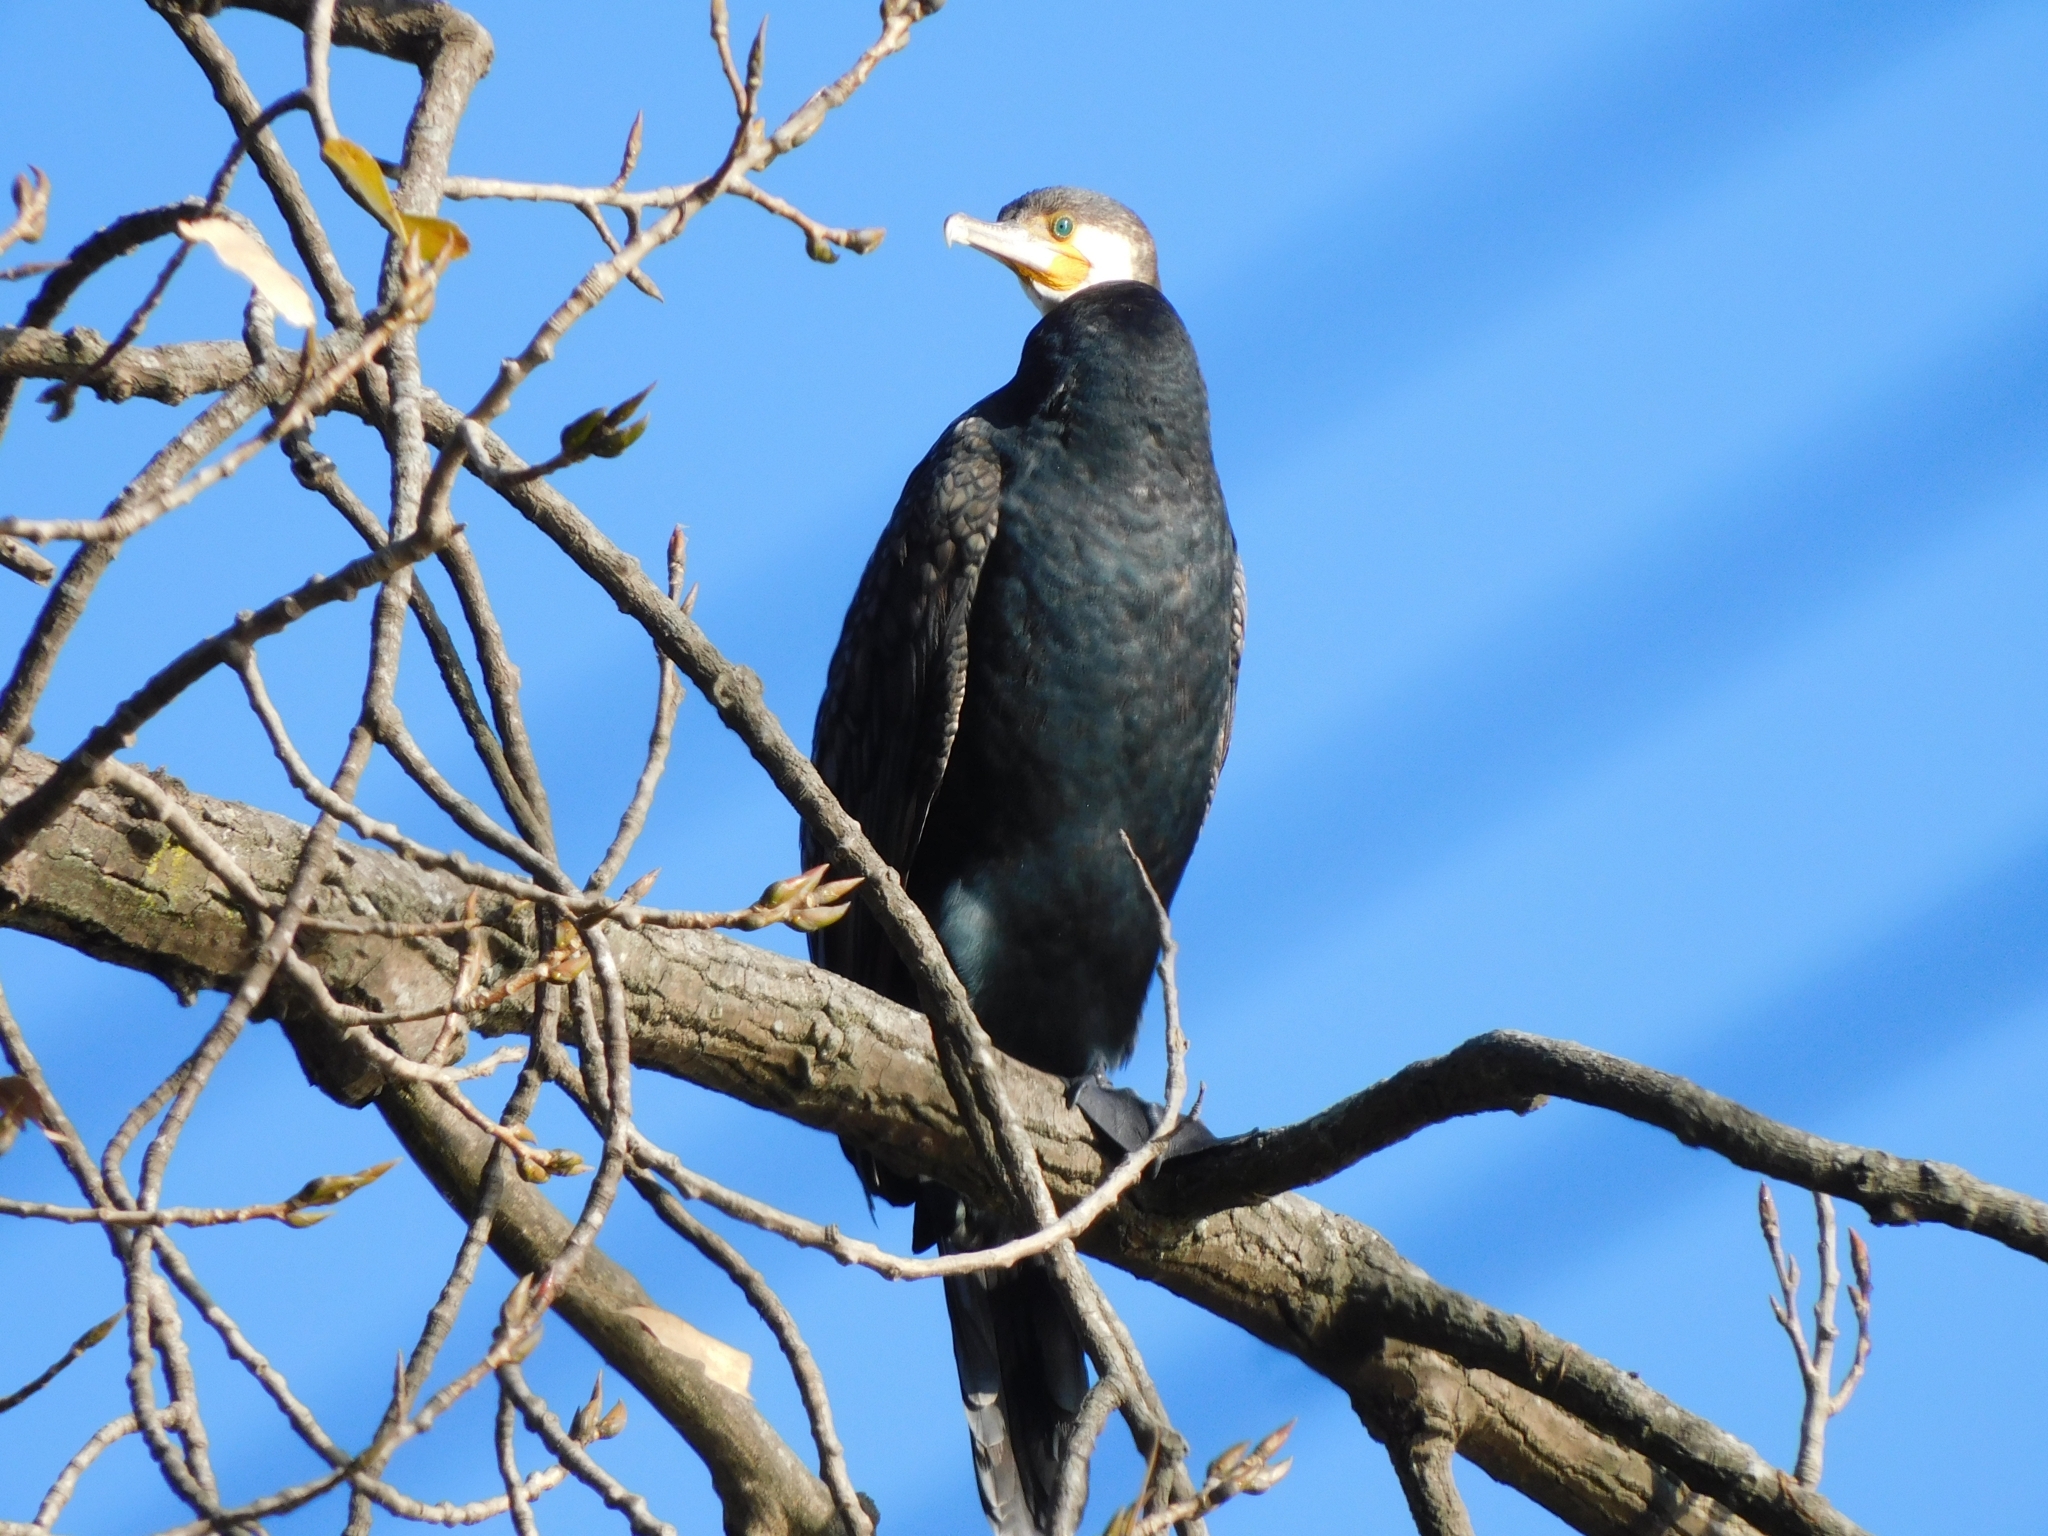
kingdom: Animalia
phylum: Chordata
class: Aves
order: Suliformes
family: Phalacrocoracidae
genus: Phalacrocorax
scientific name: Phalacrocorax carbo
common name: Great cormorant
